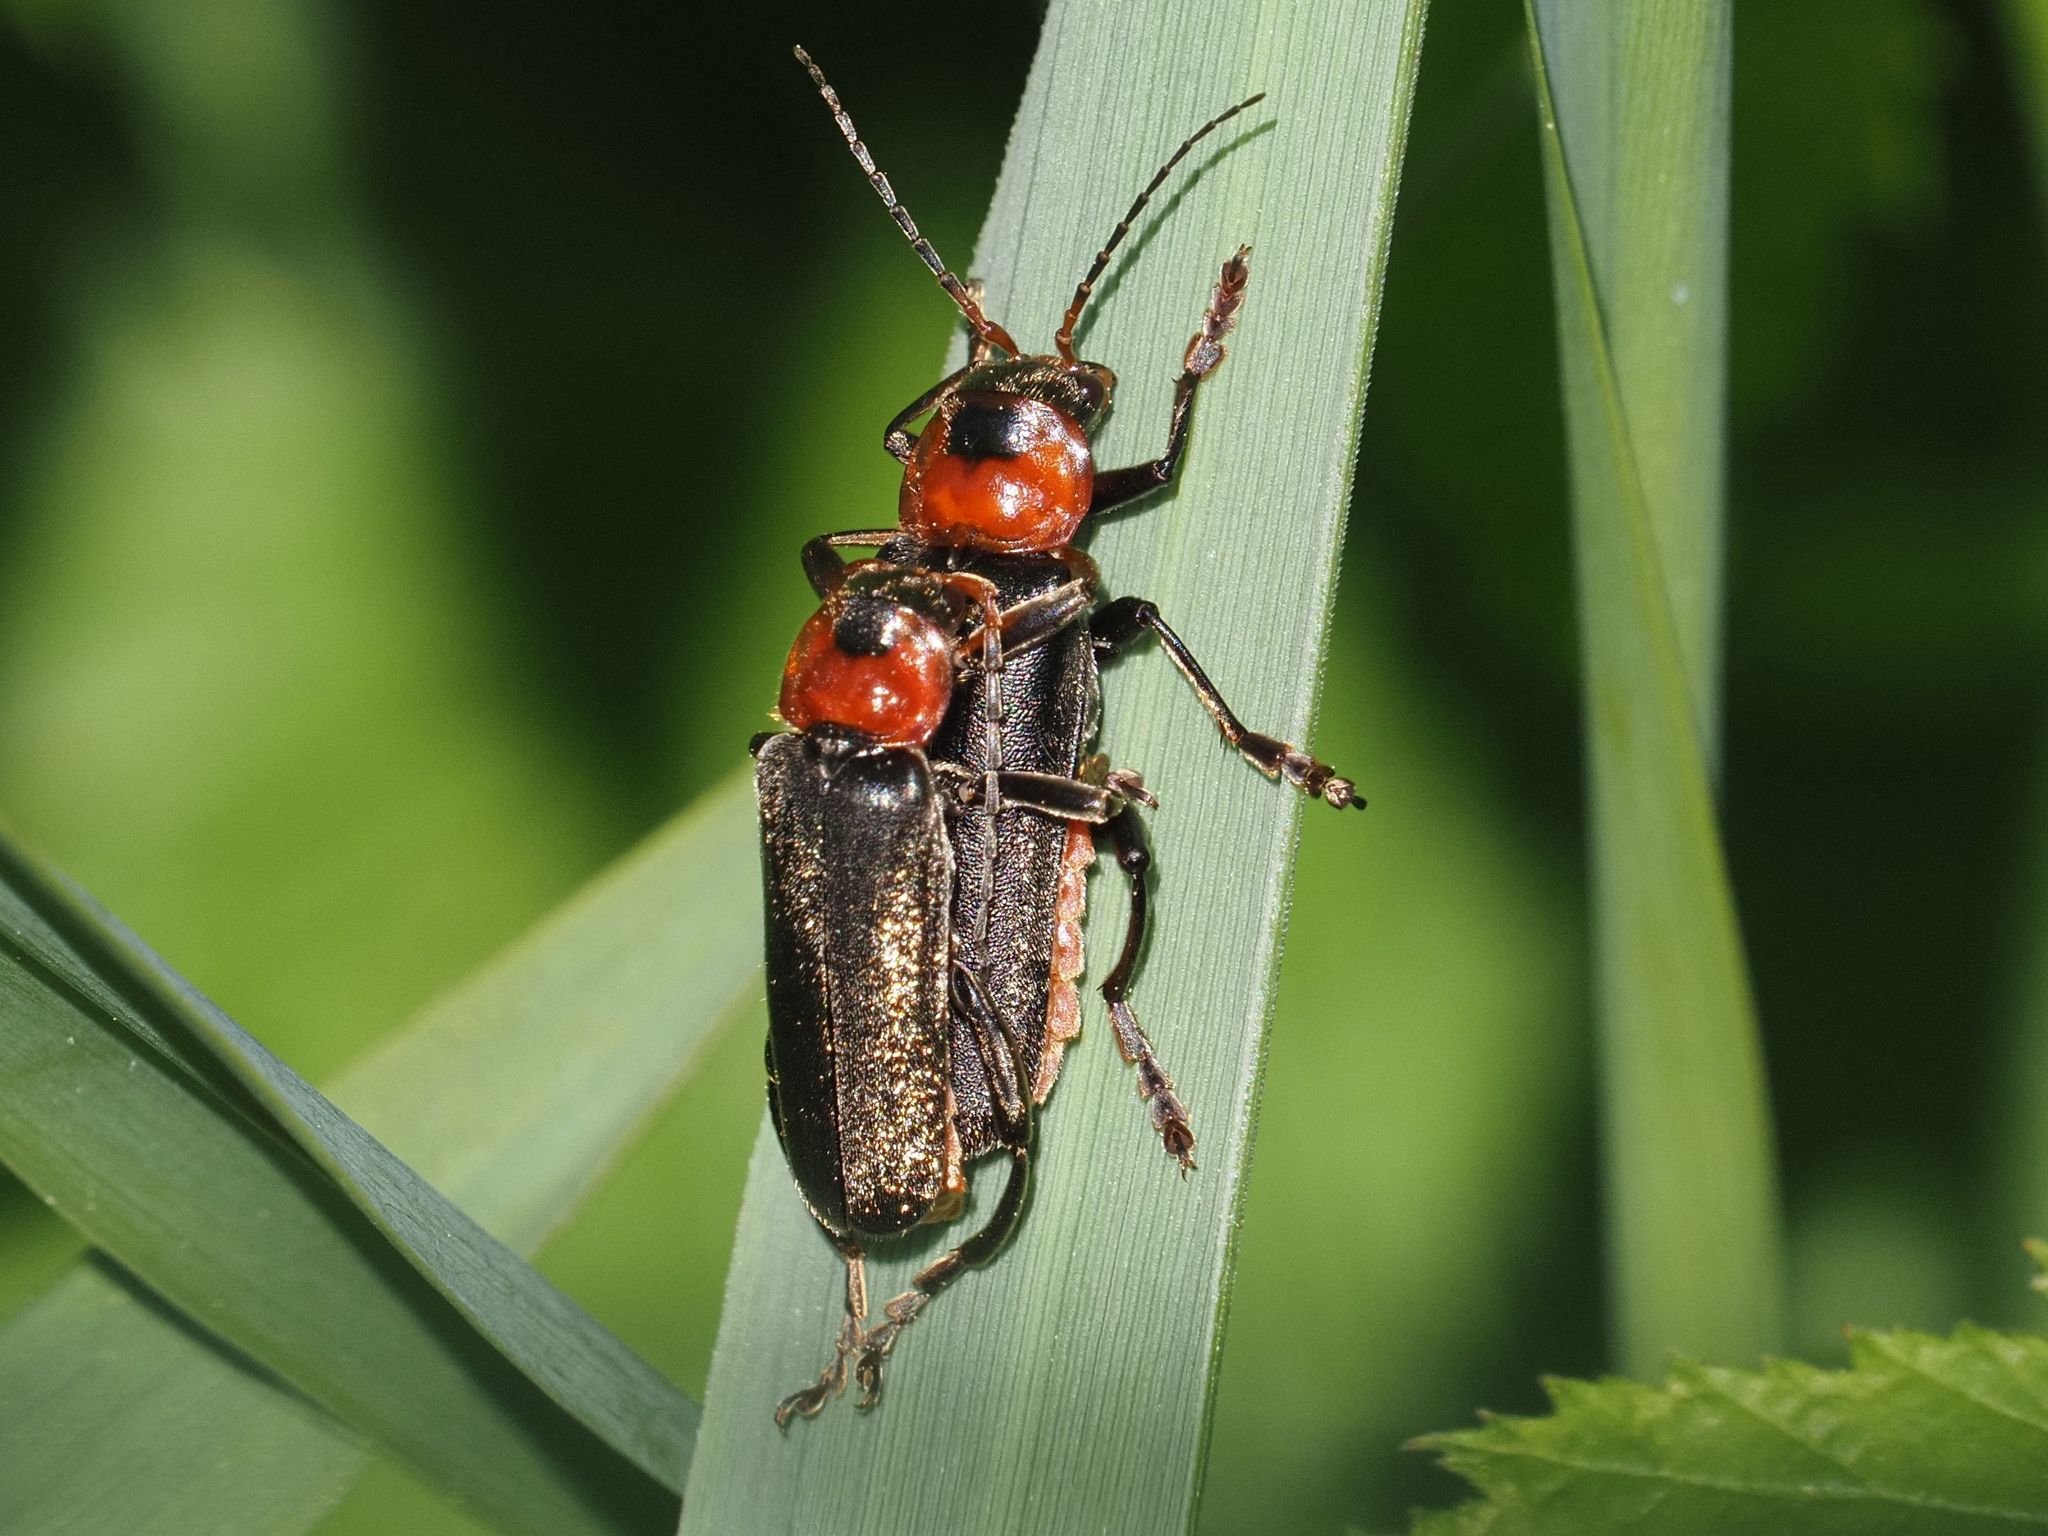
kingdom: Animalia
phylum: Arthropoda
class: Insecta
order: Coleoptera
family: Cantharidae
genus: Cantharis
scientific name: Cantharis fusca
